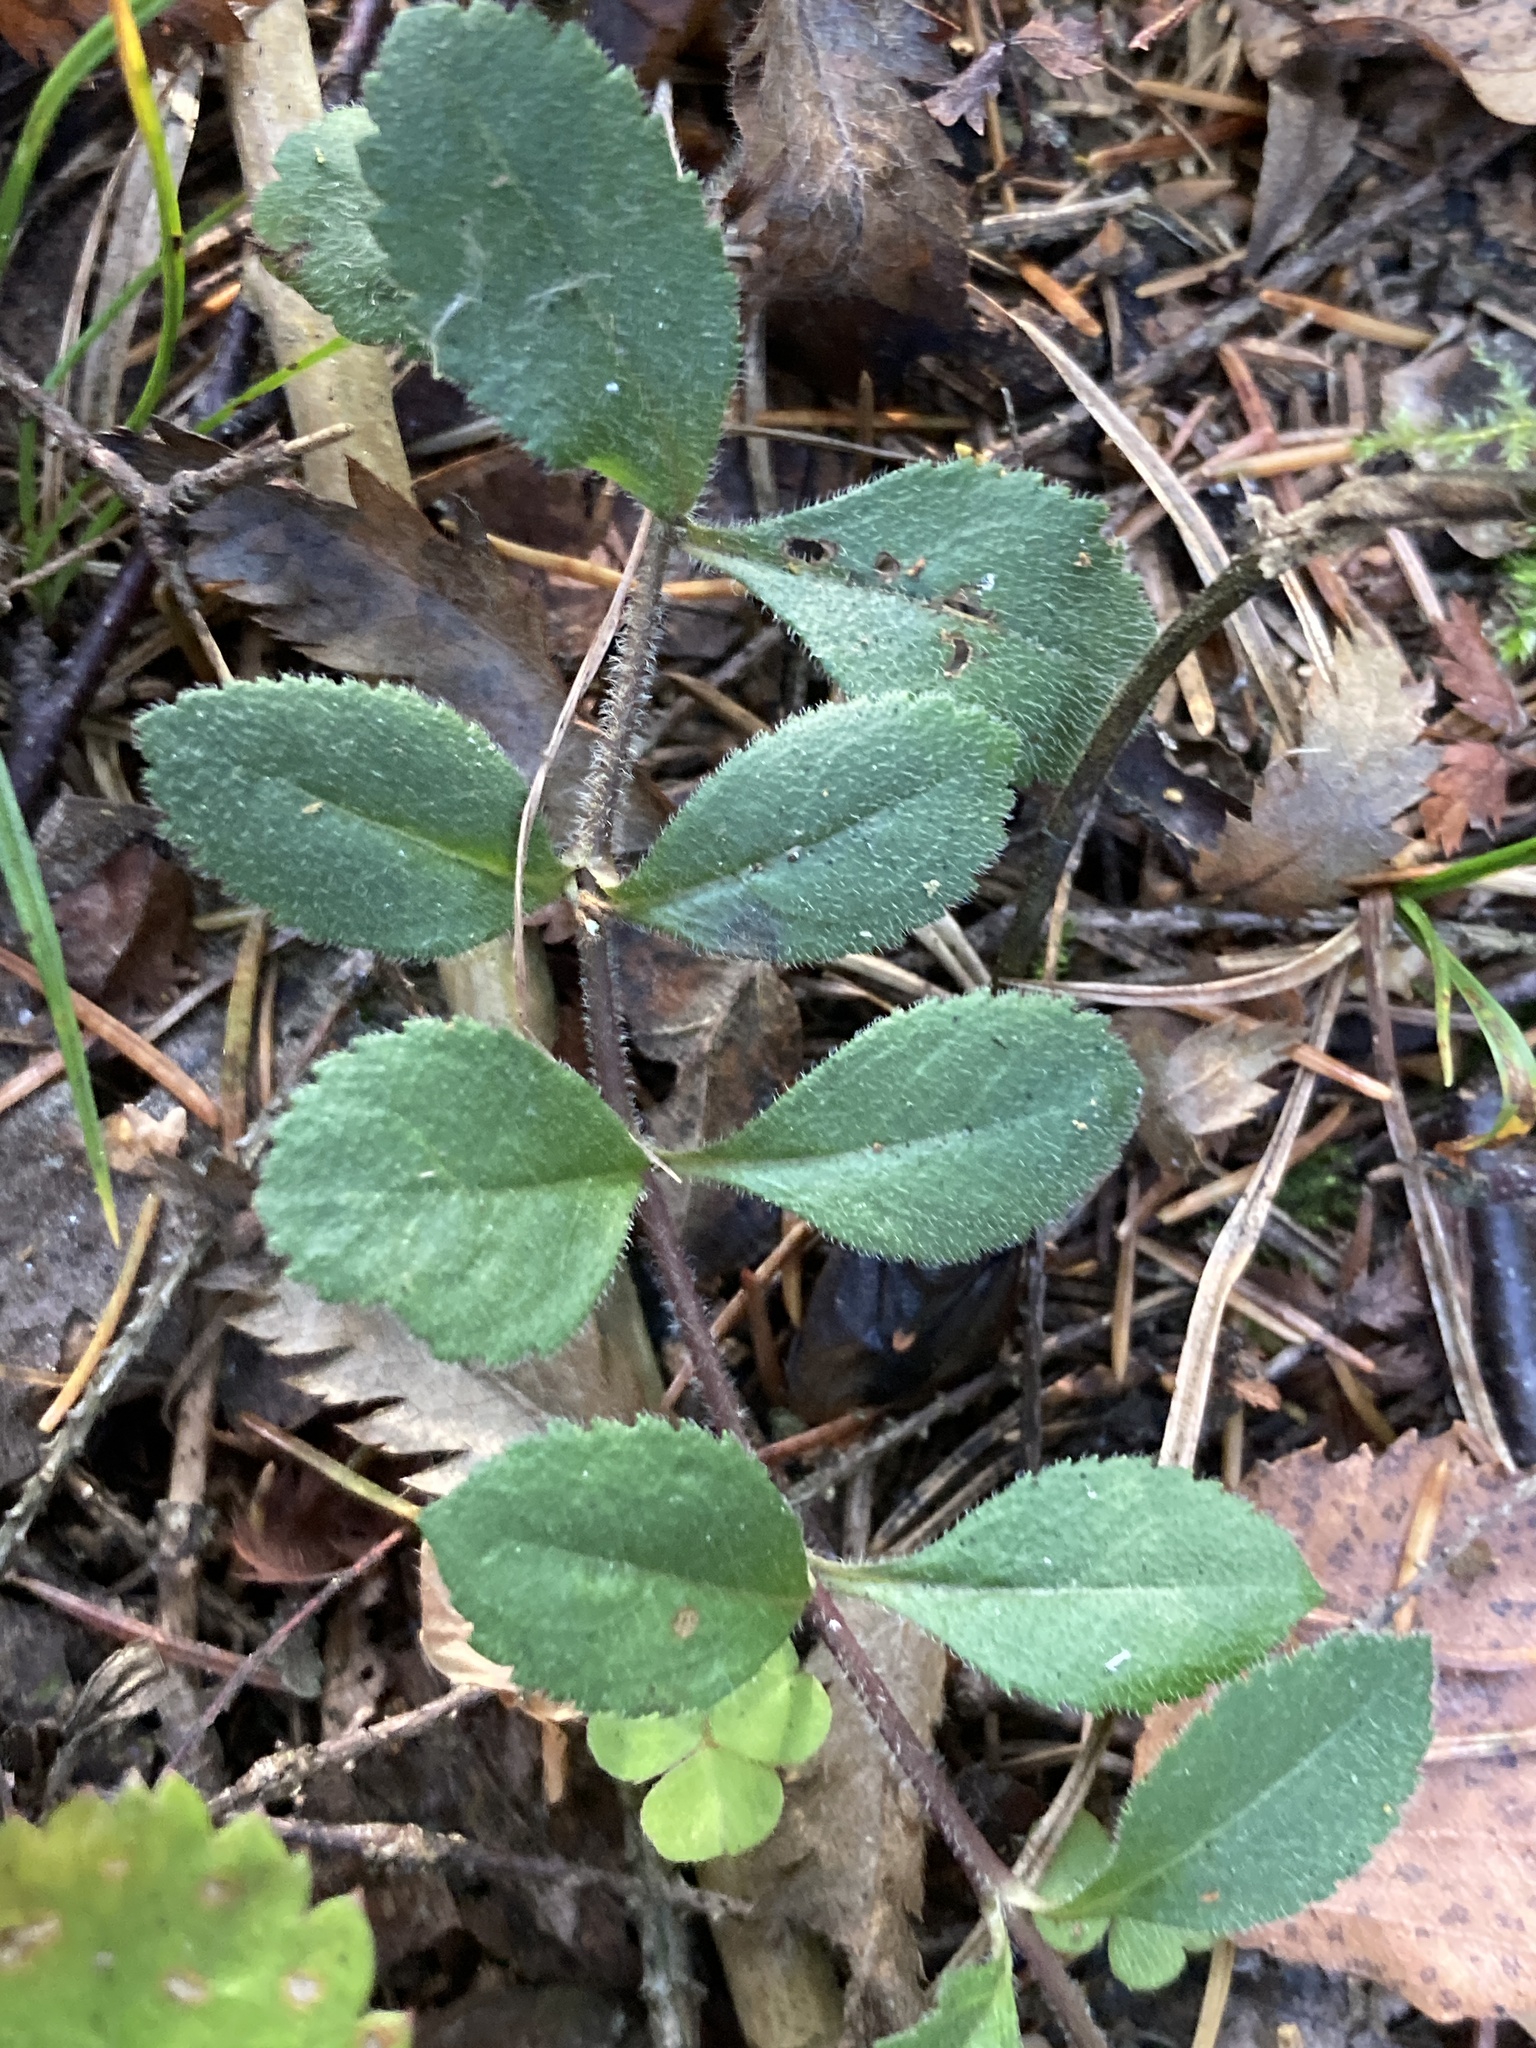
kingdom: Plantae
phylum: Tracheophyta
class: Magnoliopsida
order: Lamiales
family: Plantaginaceae
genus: Veronica
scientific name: Veronica officinalis
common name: Common speedwell
